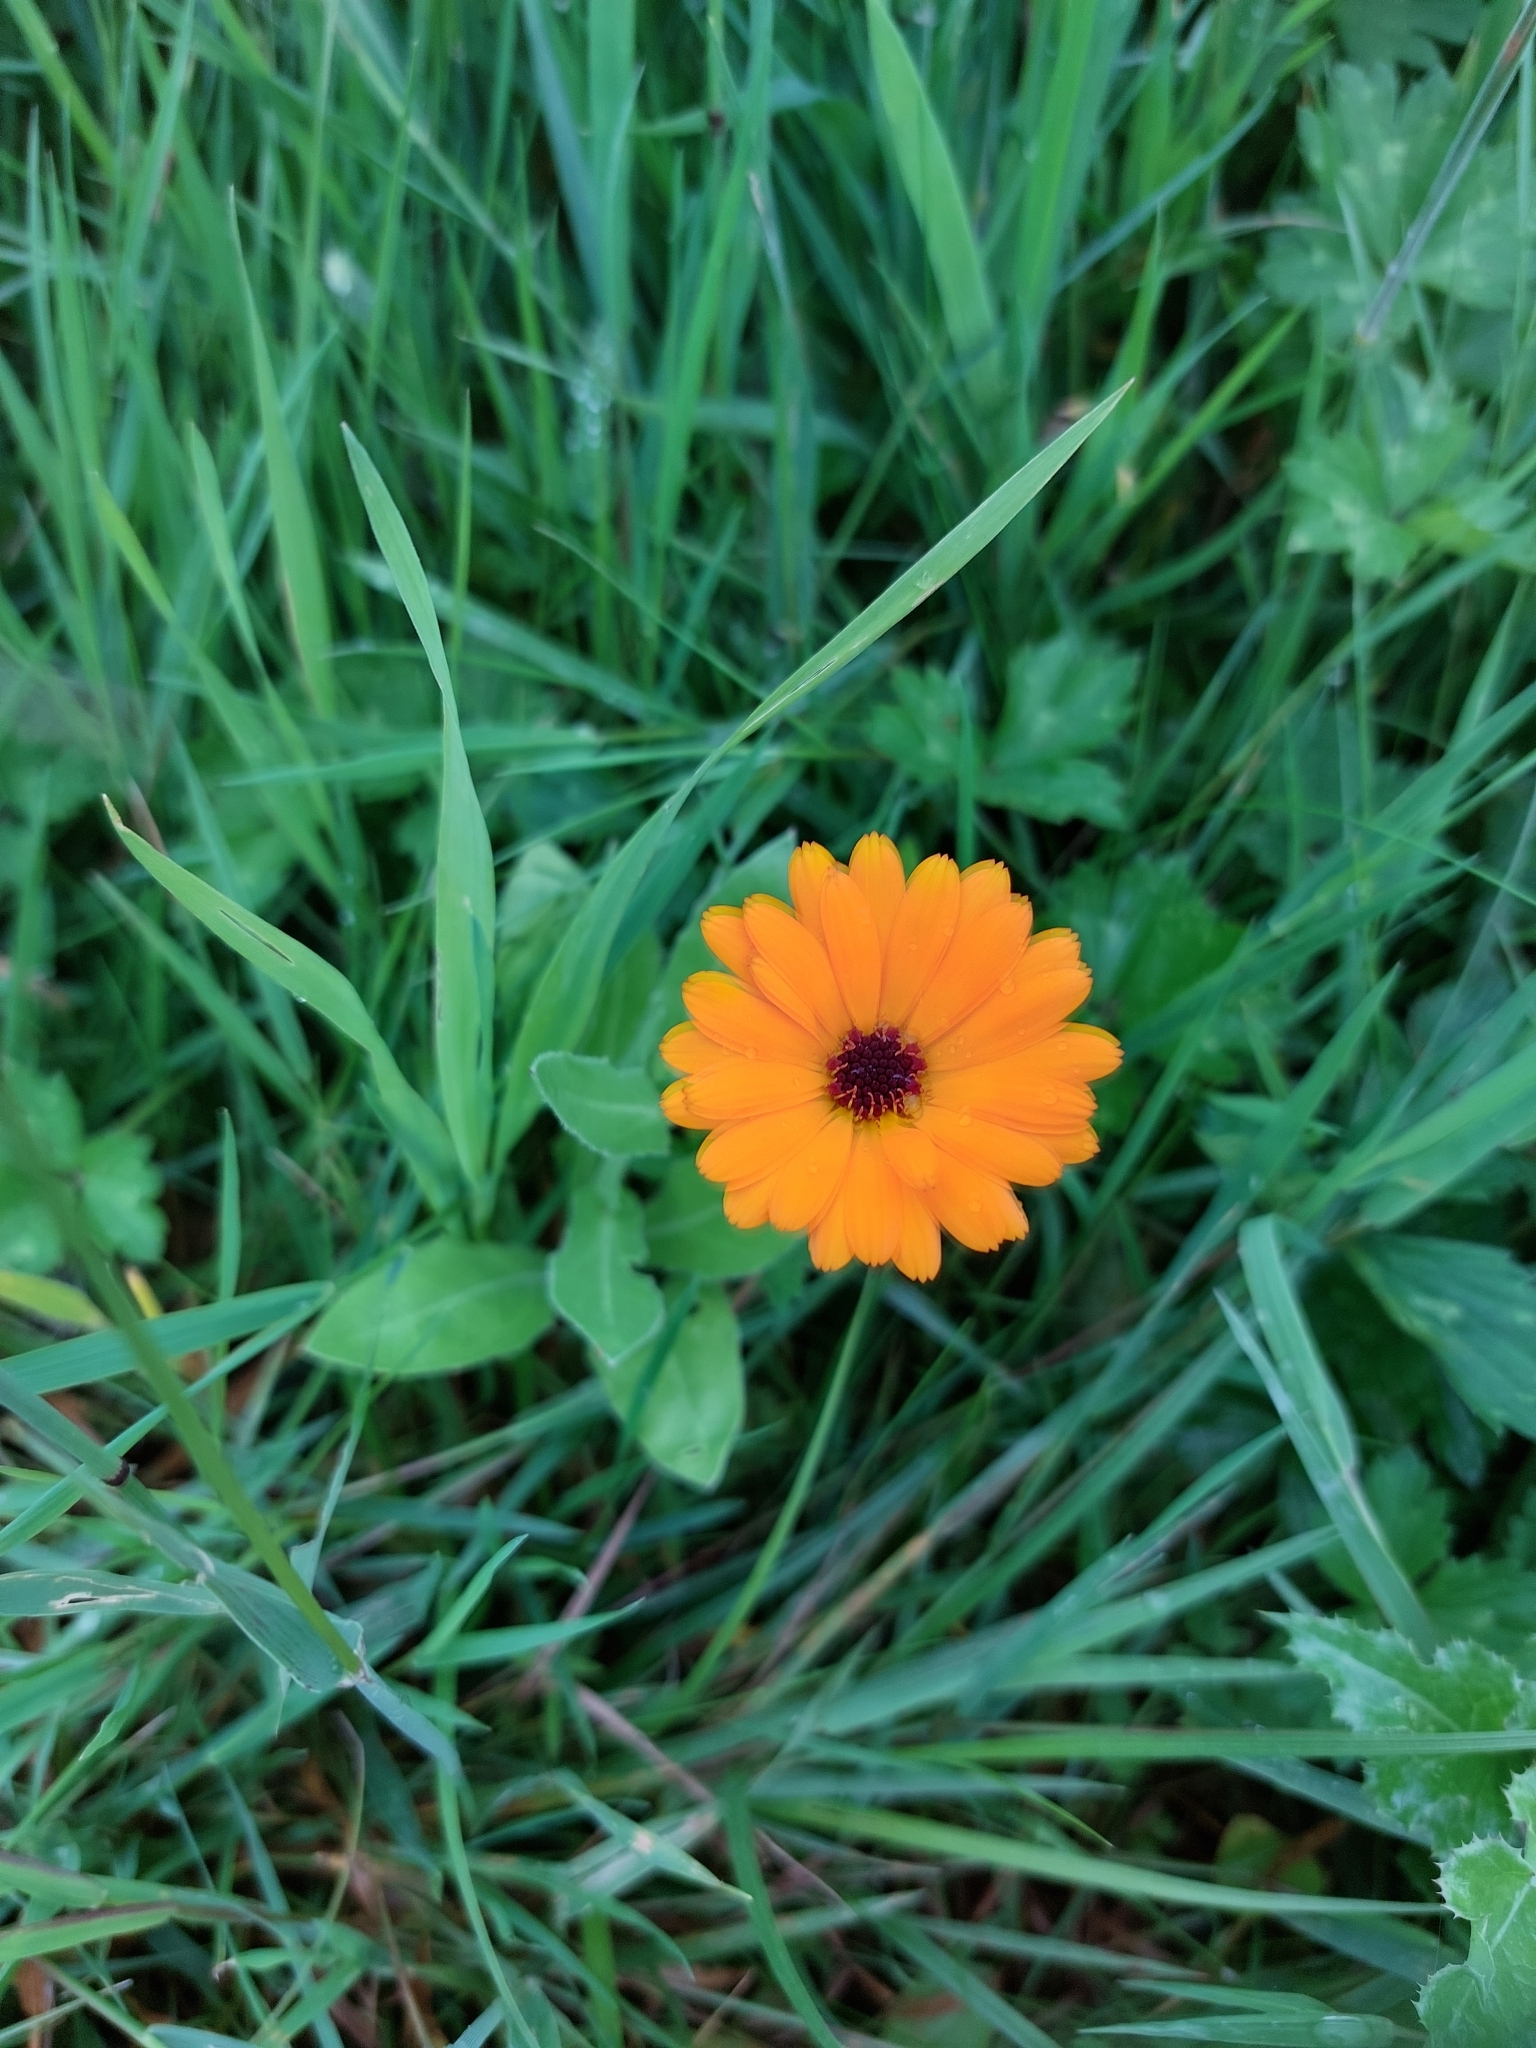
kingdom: Plantae
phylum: Tracheophyta
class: Magnoliopsida
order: Asterales
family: Asteraceae
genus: Calendula
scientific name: Calendula officinalis
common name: Pot marigold
